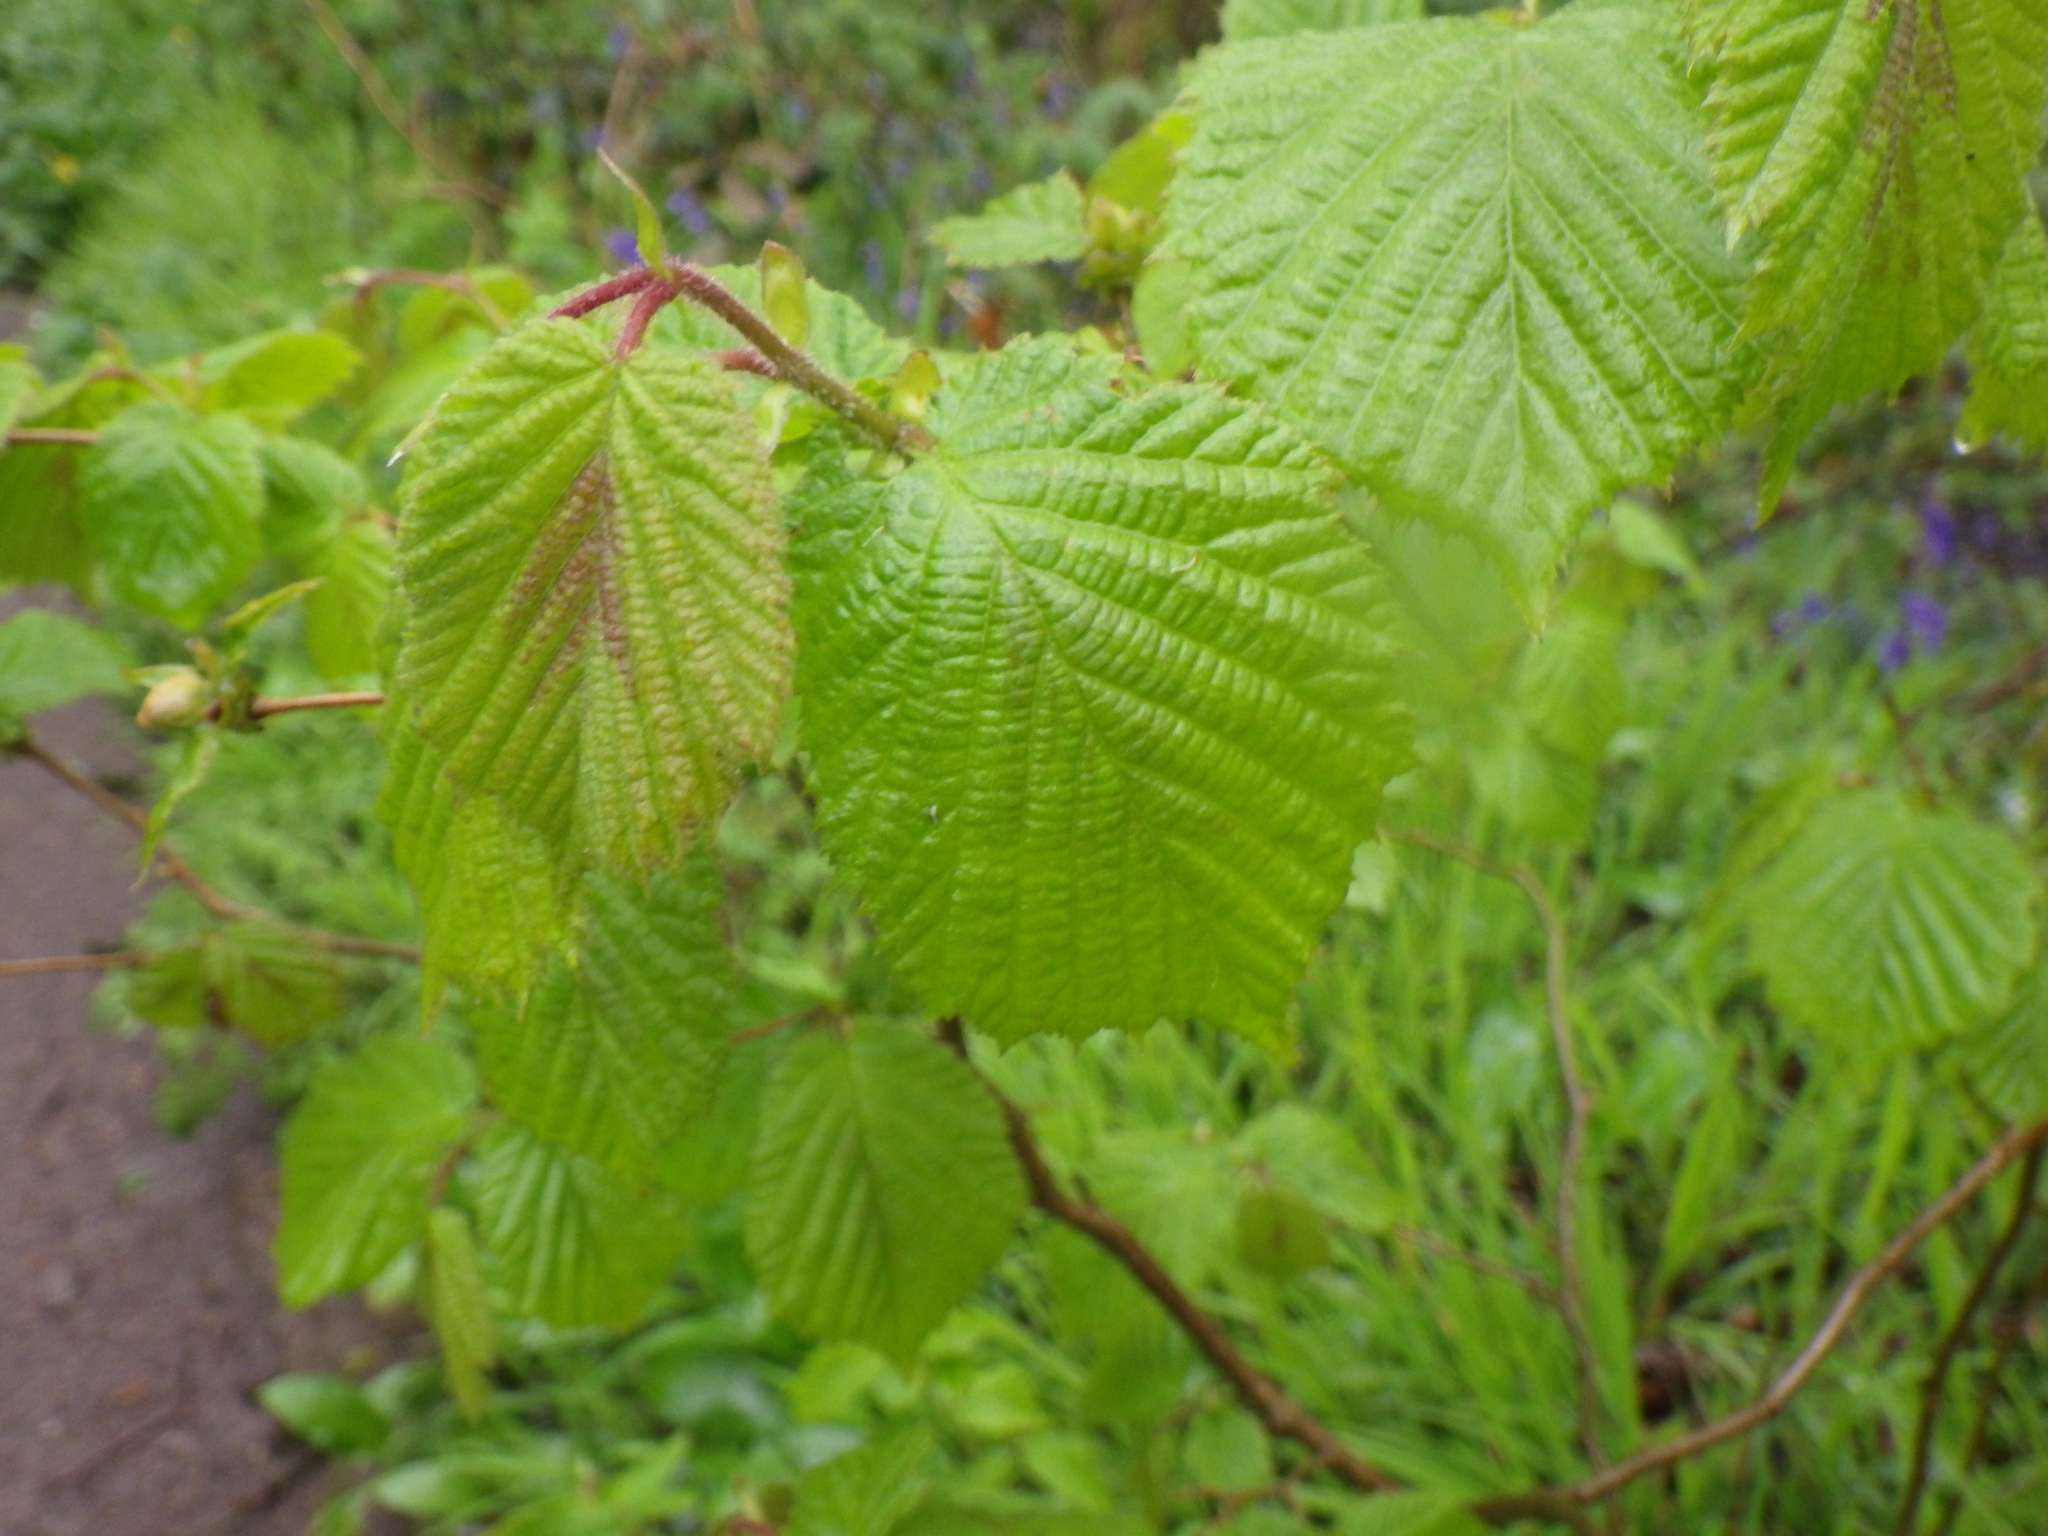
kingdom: Plantae
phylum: Tracheophyta
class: Magnoliopsida
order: Fagales
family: Betulaceae
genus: Corylus
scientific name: Corylus avellana
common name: European hazel
